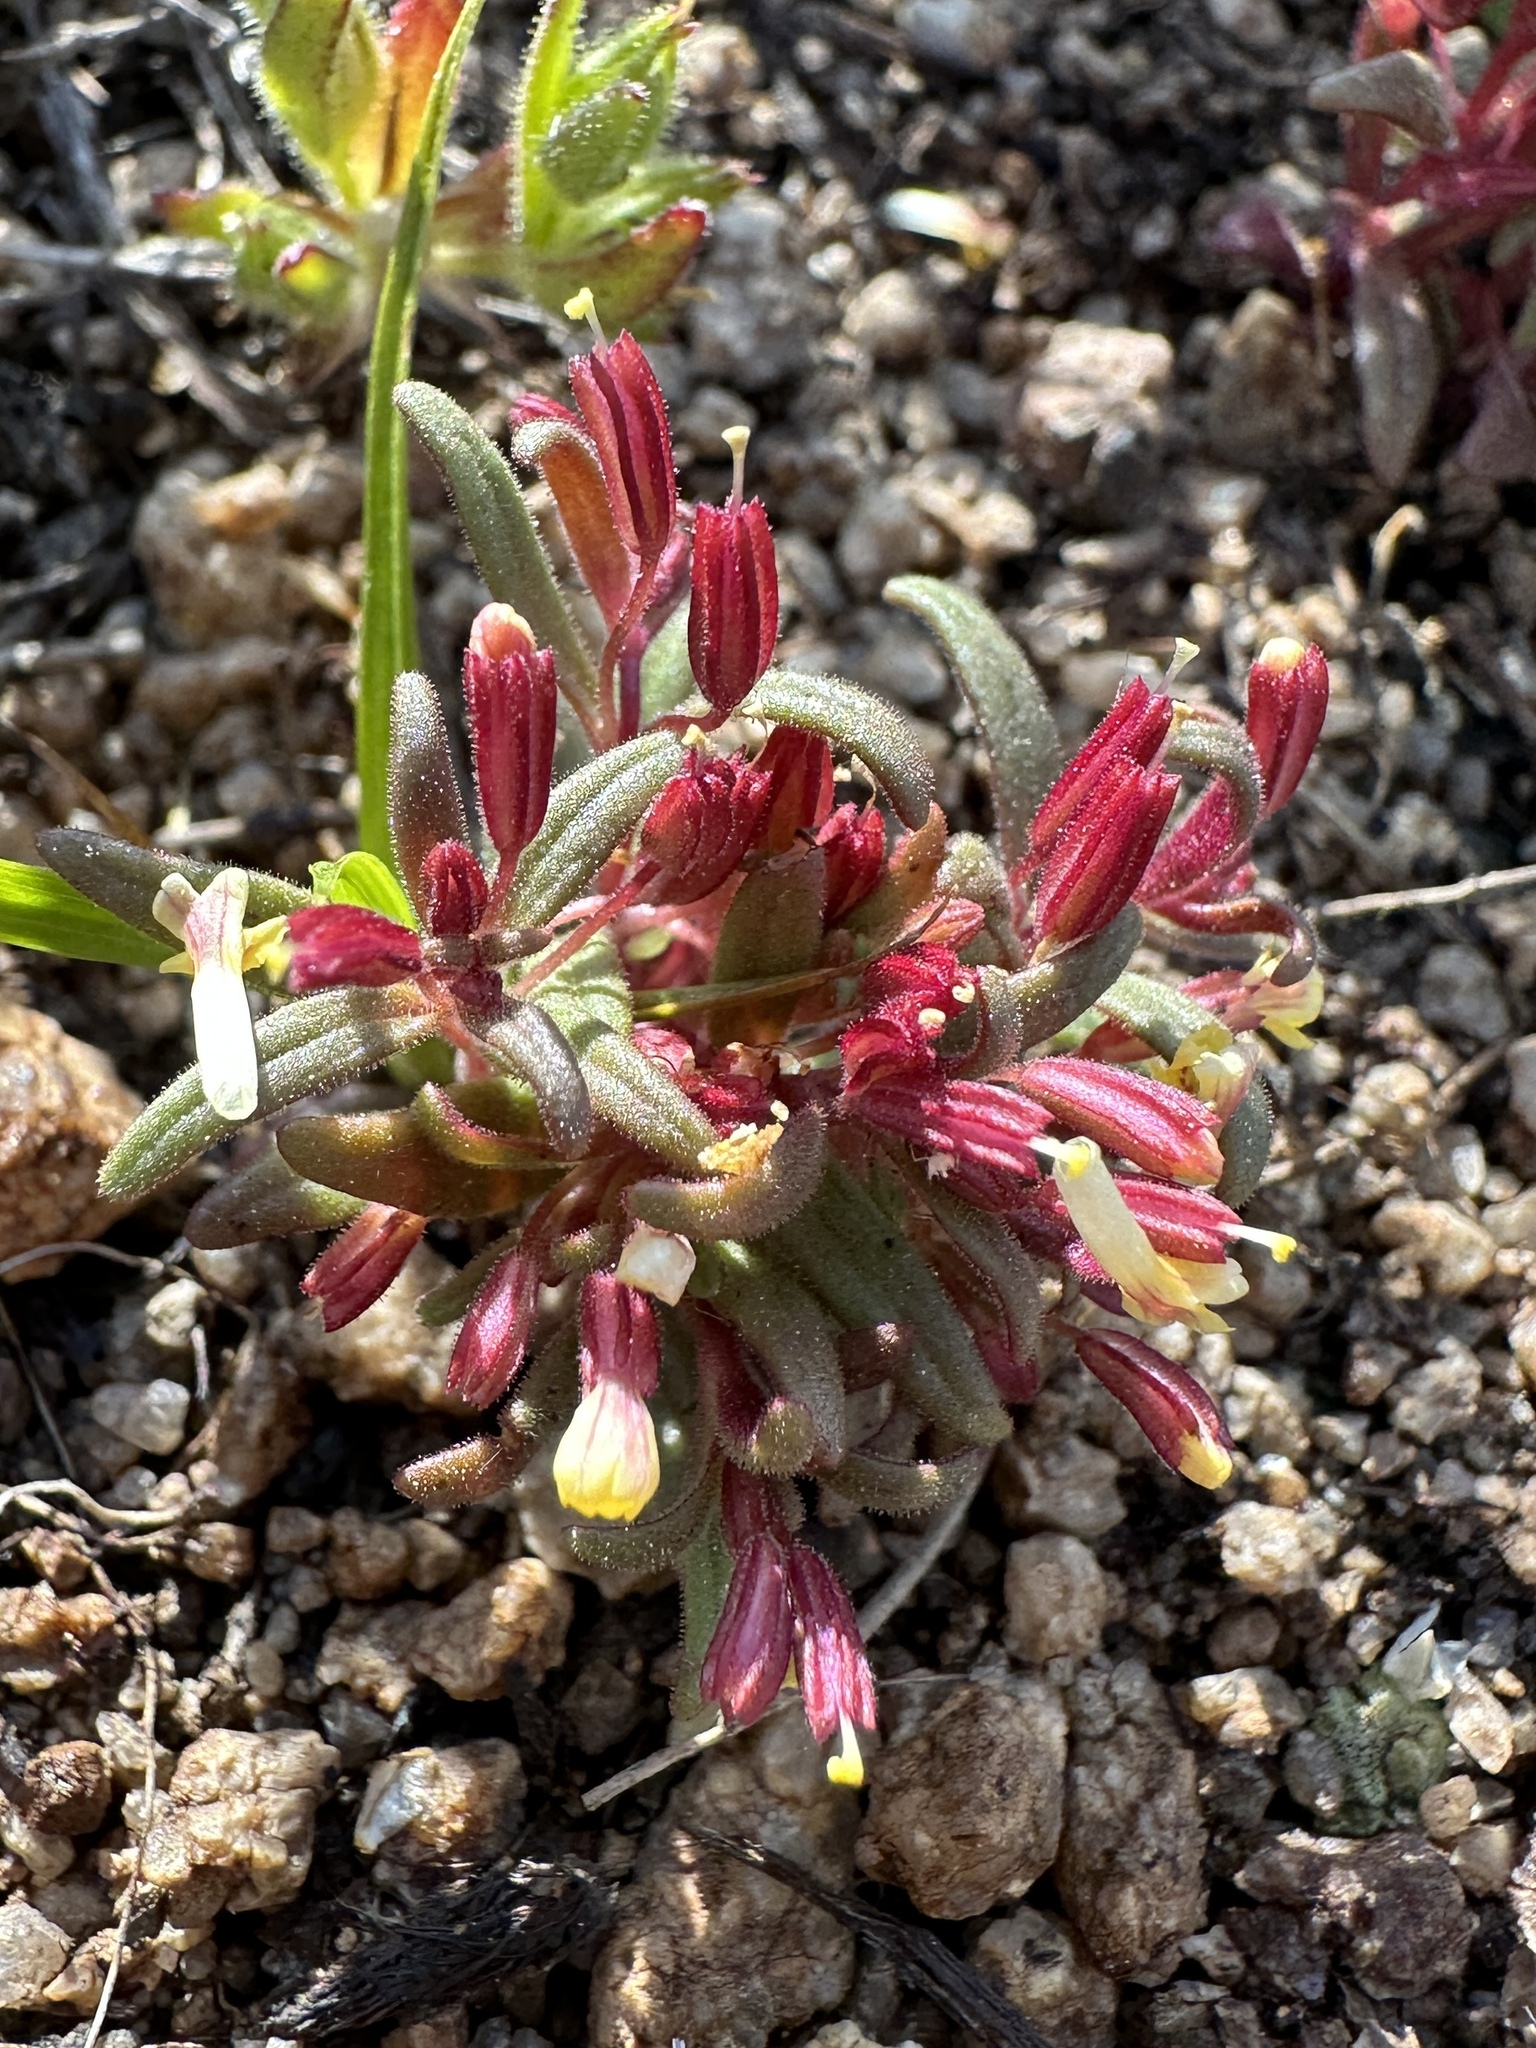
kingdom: Plantae
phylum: Tracheophyta
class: Magnoliopsida
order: Lamiales
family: Phrymaceae
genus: Erythranthe
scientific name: Erythranthe suksdorfii
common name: Suksdorf's monkeyflower
